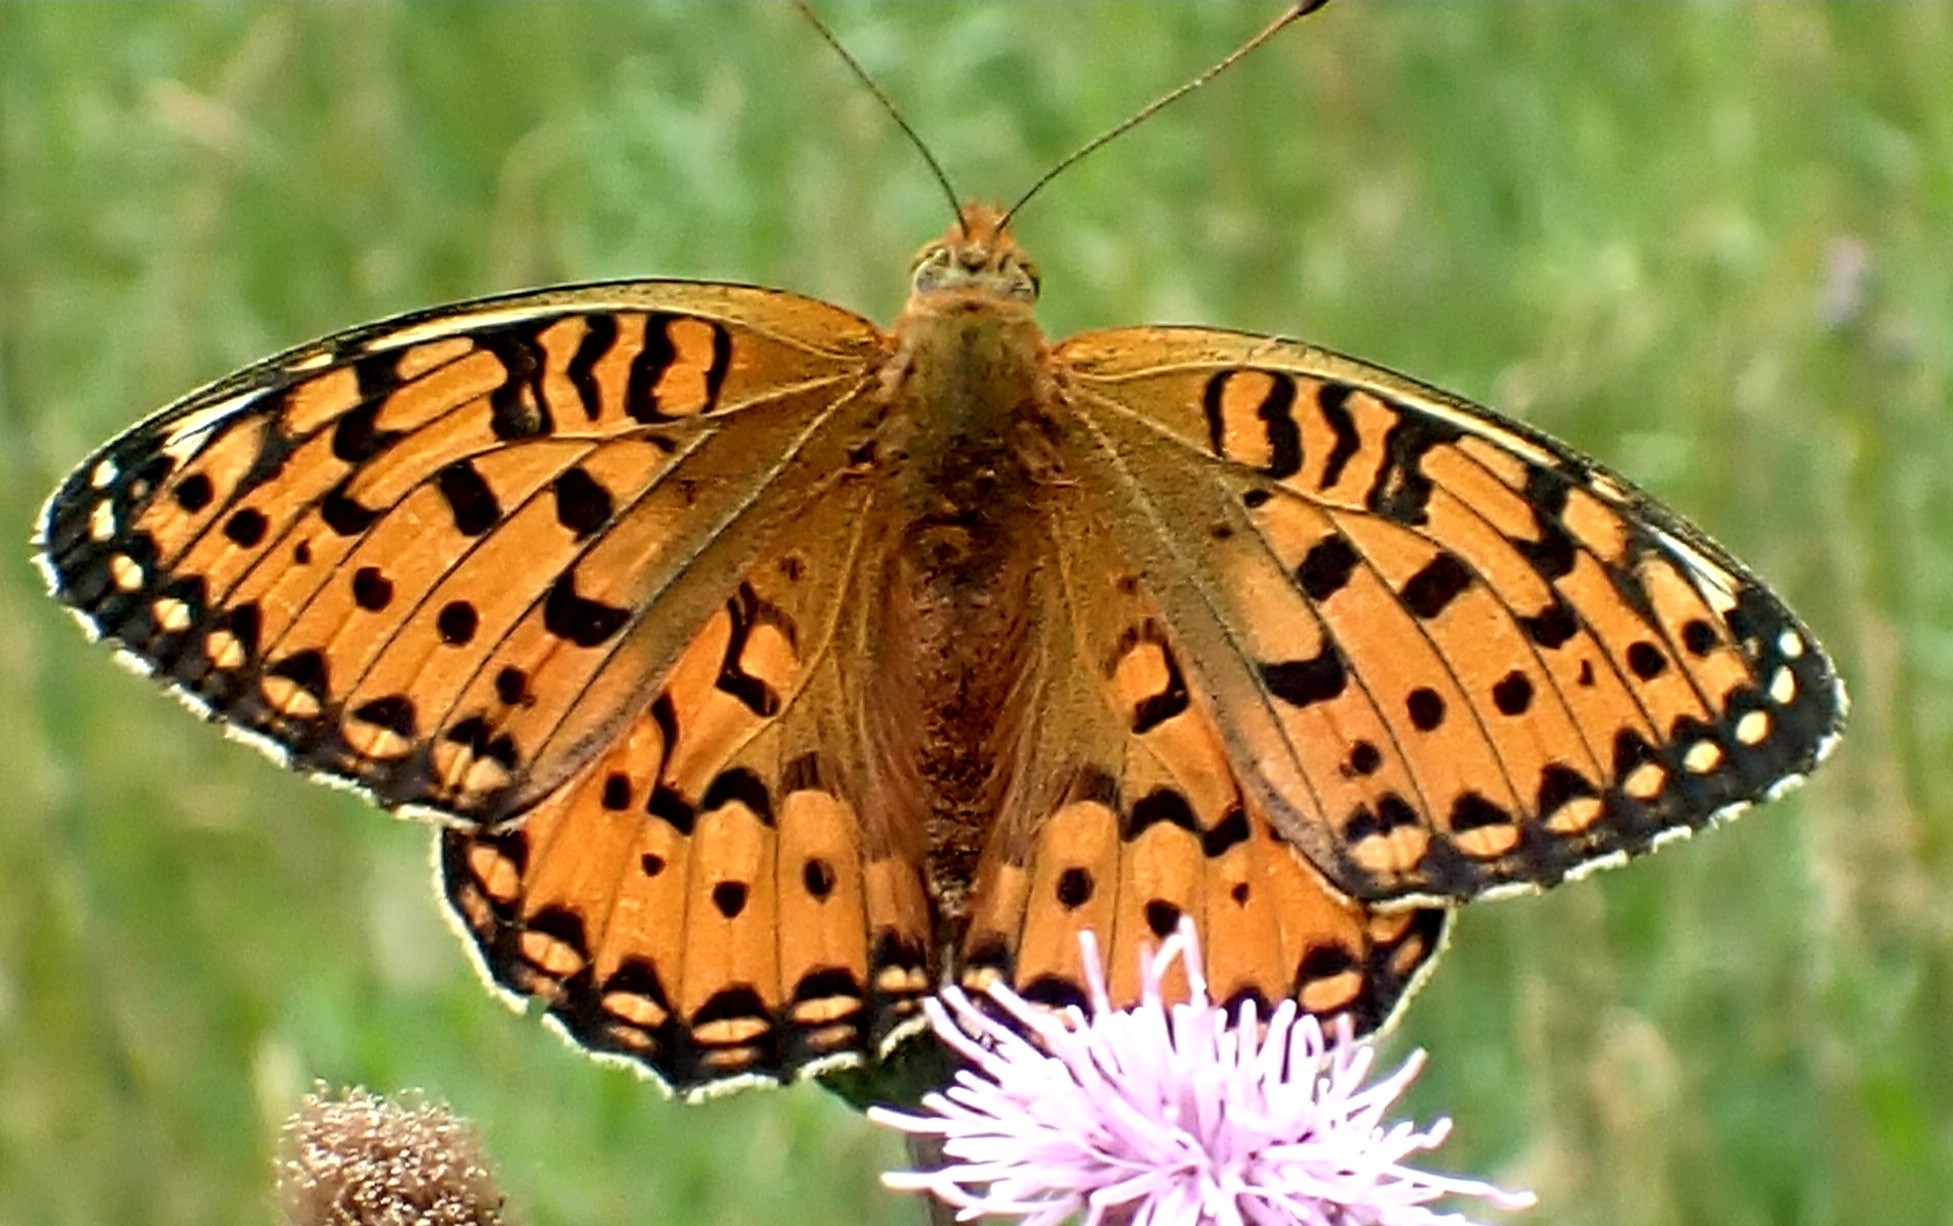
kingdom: Animalia
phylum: Arthropoda
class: Insecta
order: Lepidoptera
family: Nymphalidae
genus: Speyeria
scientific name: Speyeria aglaja
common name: Dark green fritillary
